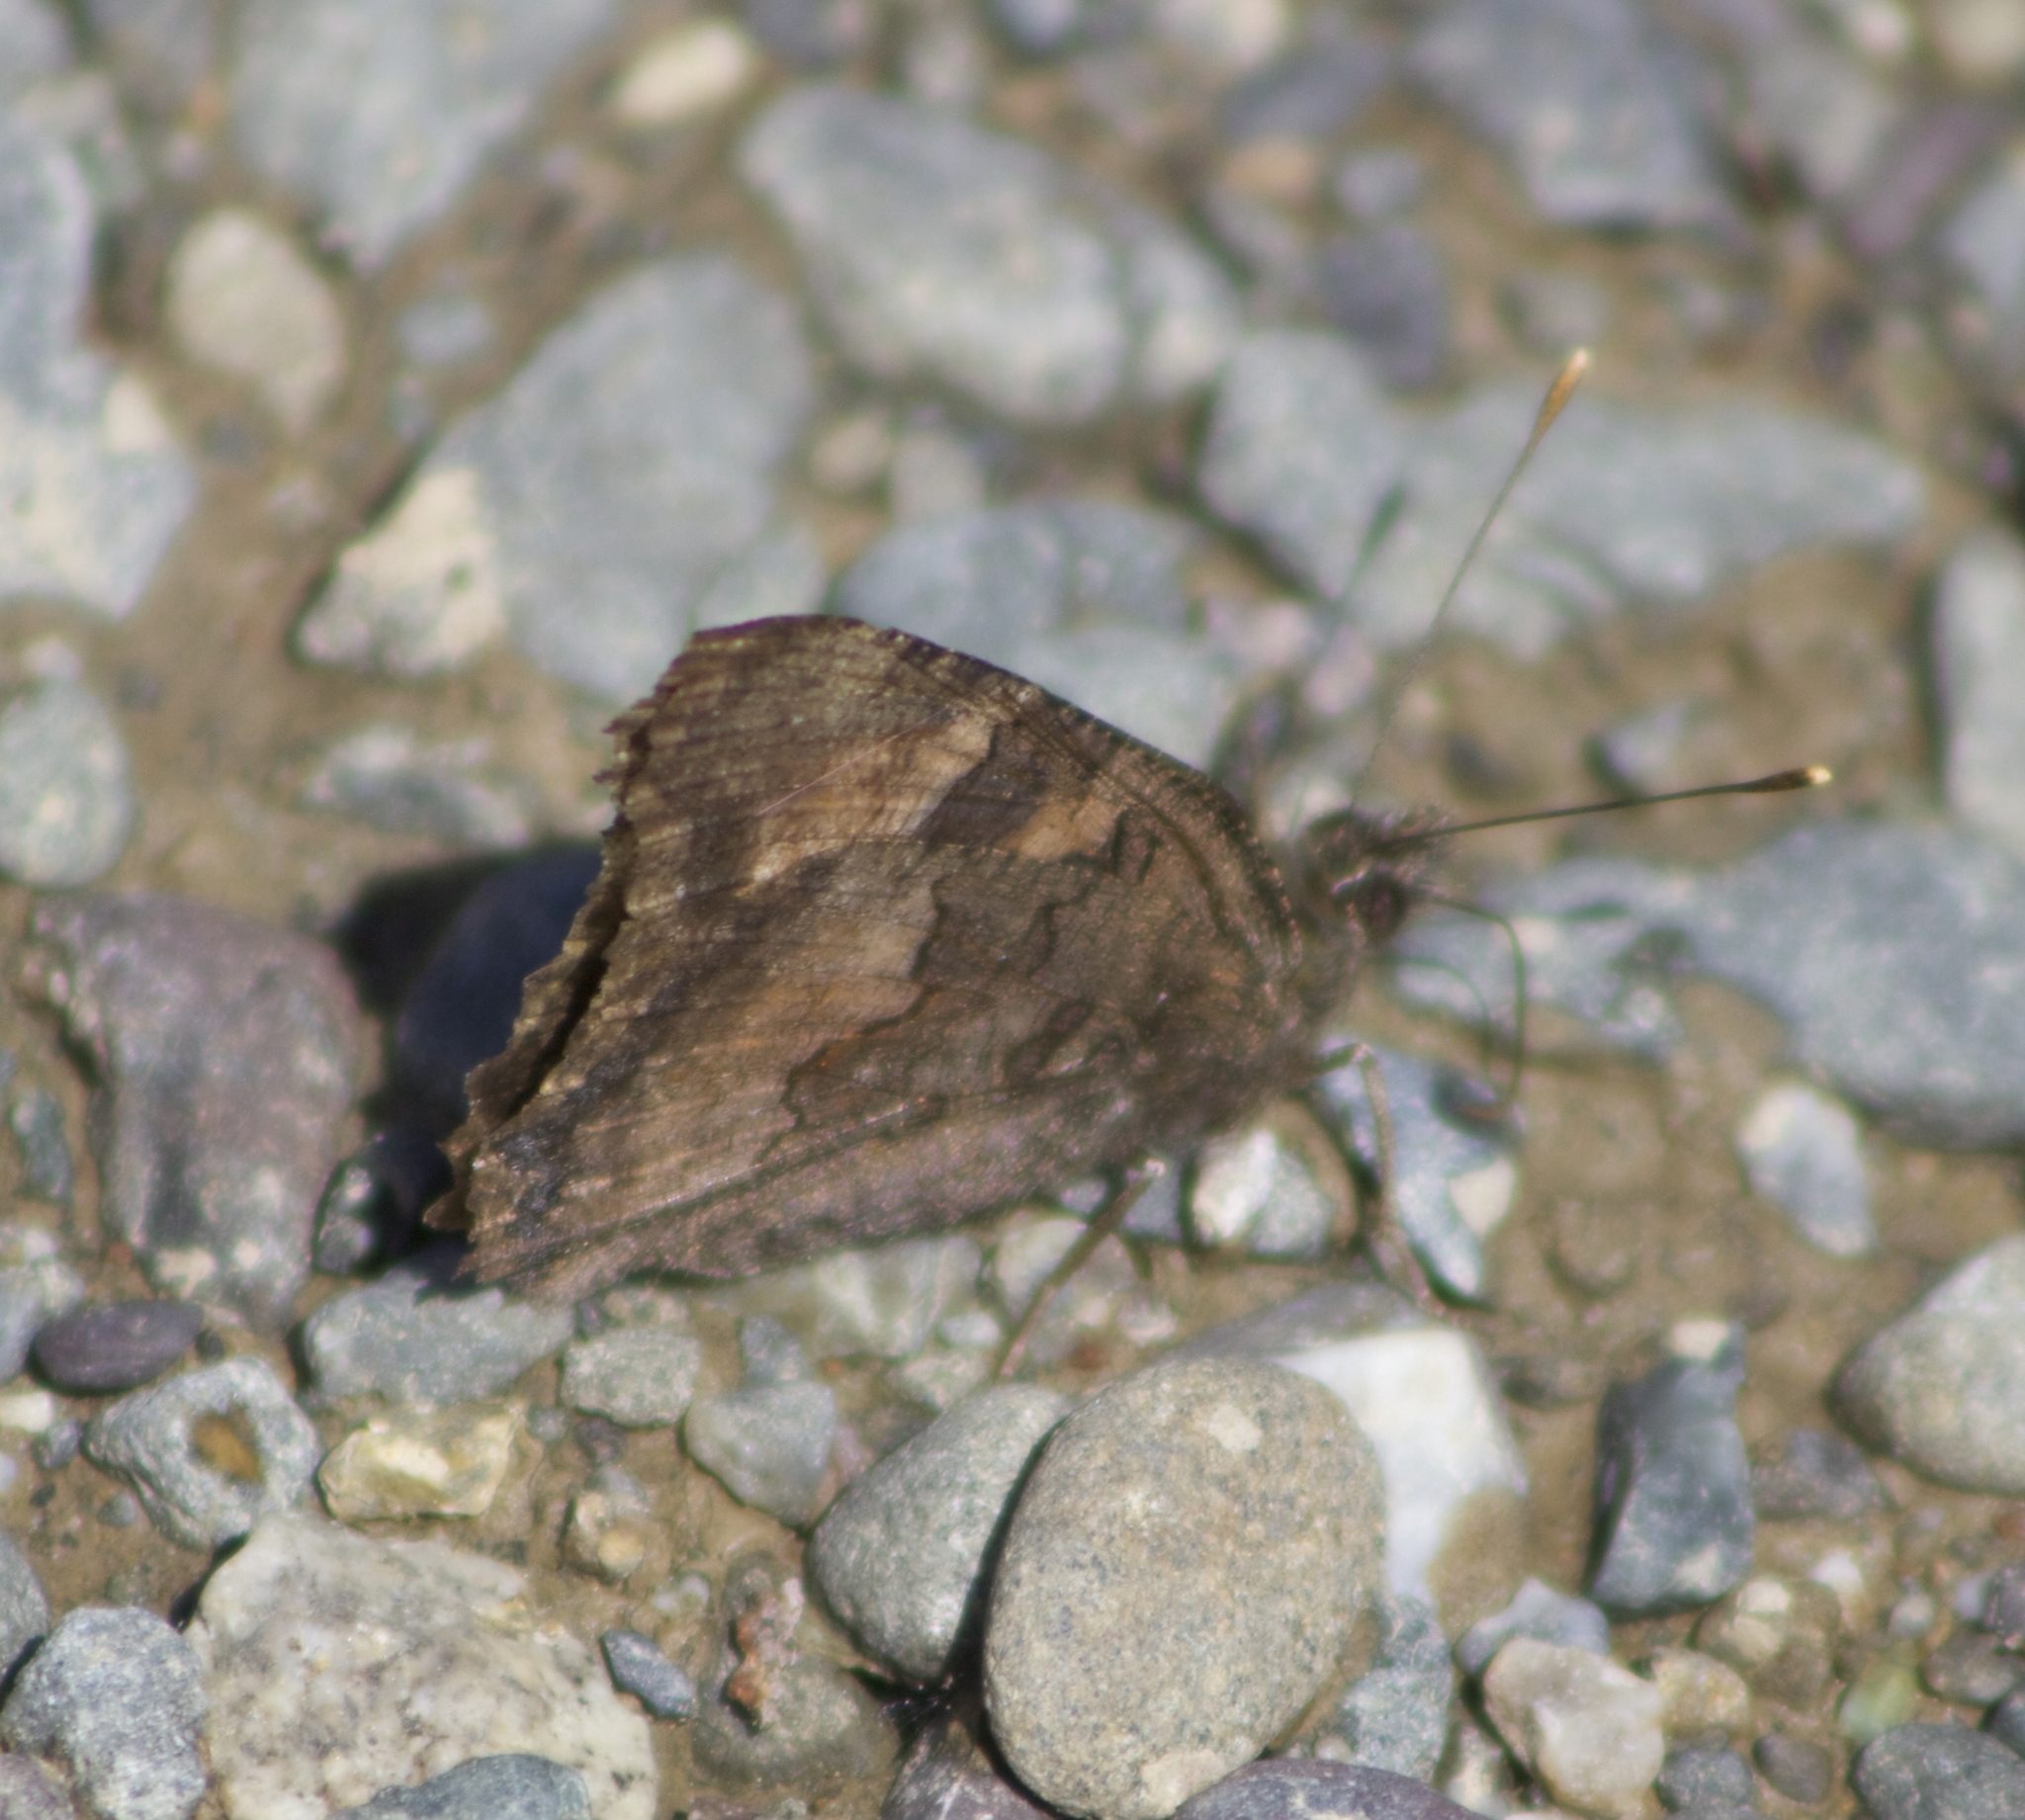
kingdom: Animalia
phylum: Arthropoda
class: Insecta
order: Lepidoptera
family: Nymphalidae
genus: Nymphalis
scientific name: Nymphalis californica
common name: California tortoiseshell
